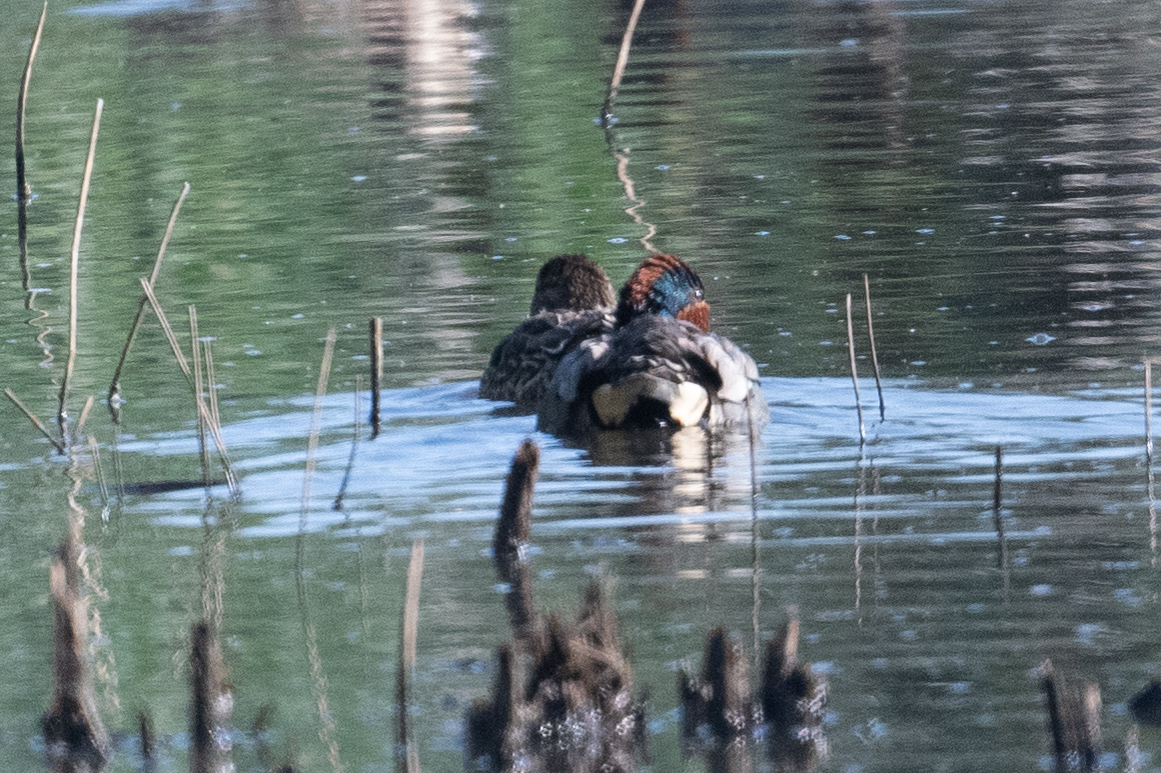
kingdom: Animalia
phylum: Chordata
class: Aves
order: Anseriformes
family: Anatidae
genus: Anas
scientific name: Anas crecca
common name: Eurasian teal
